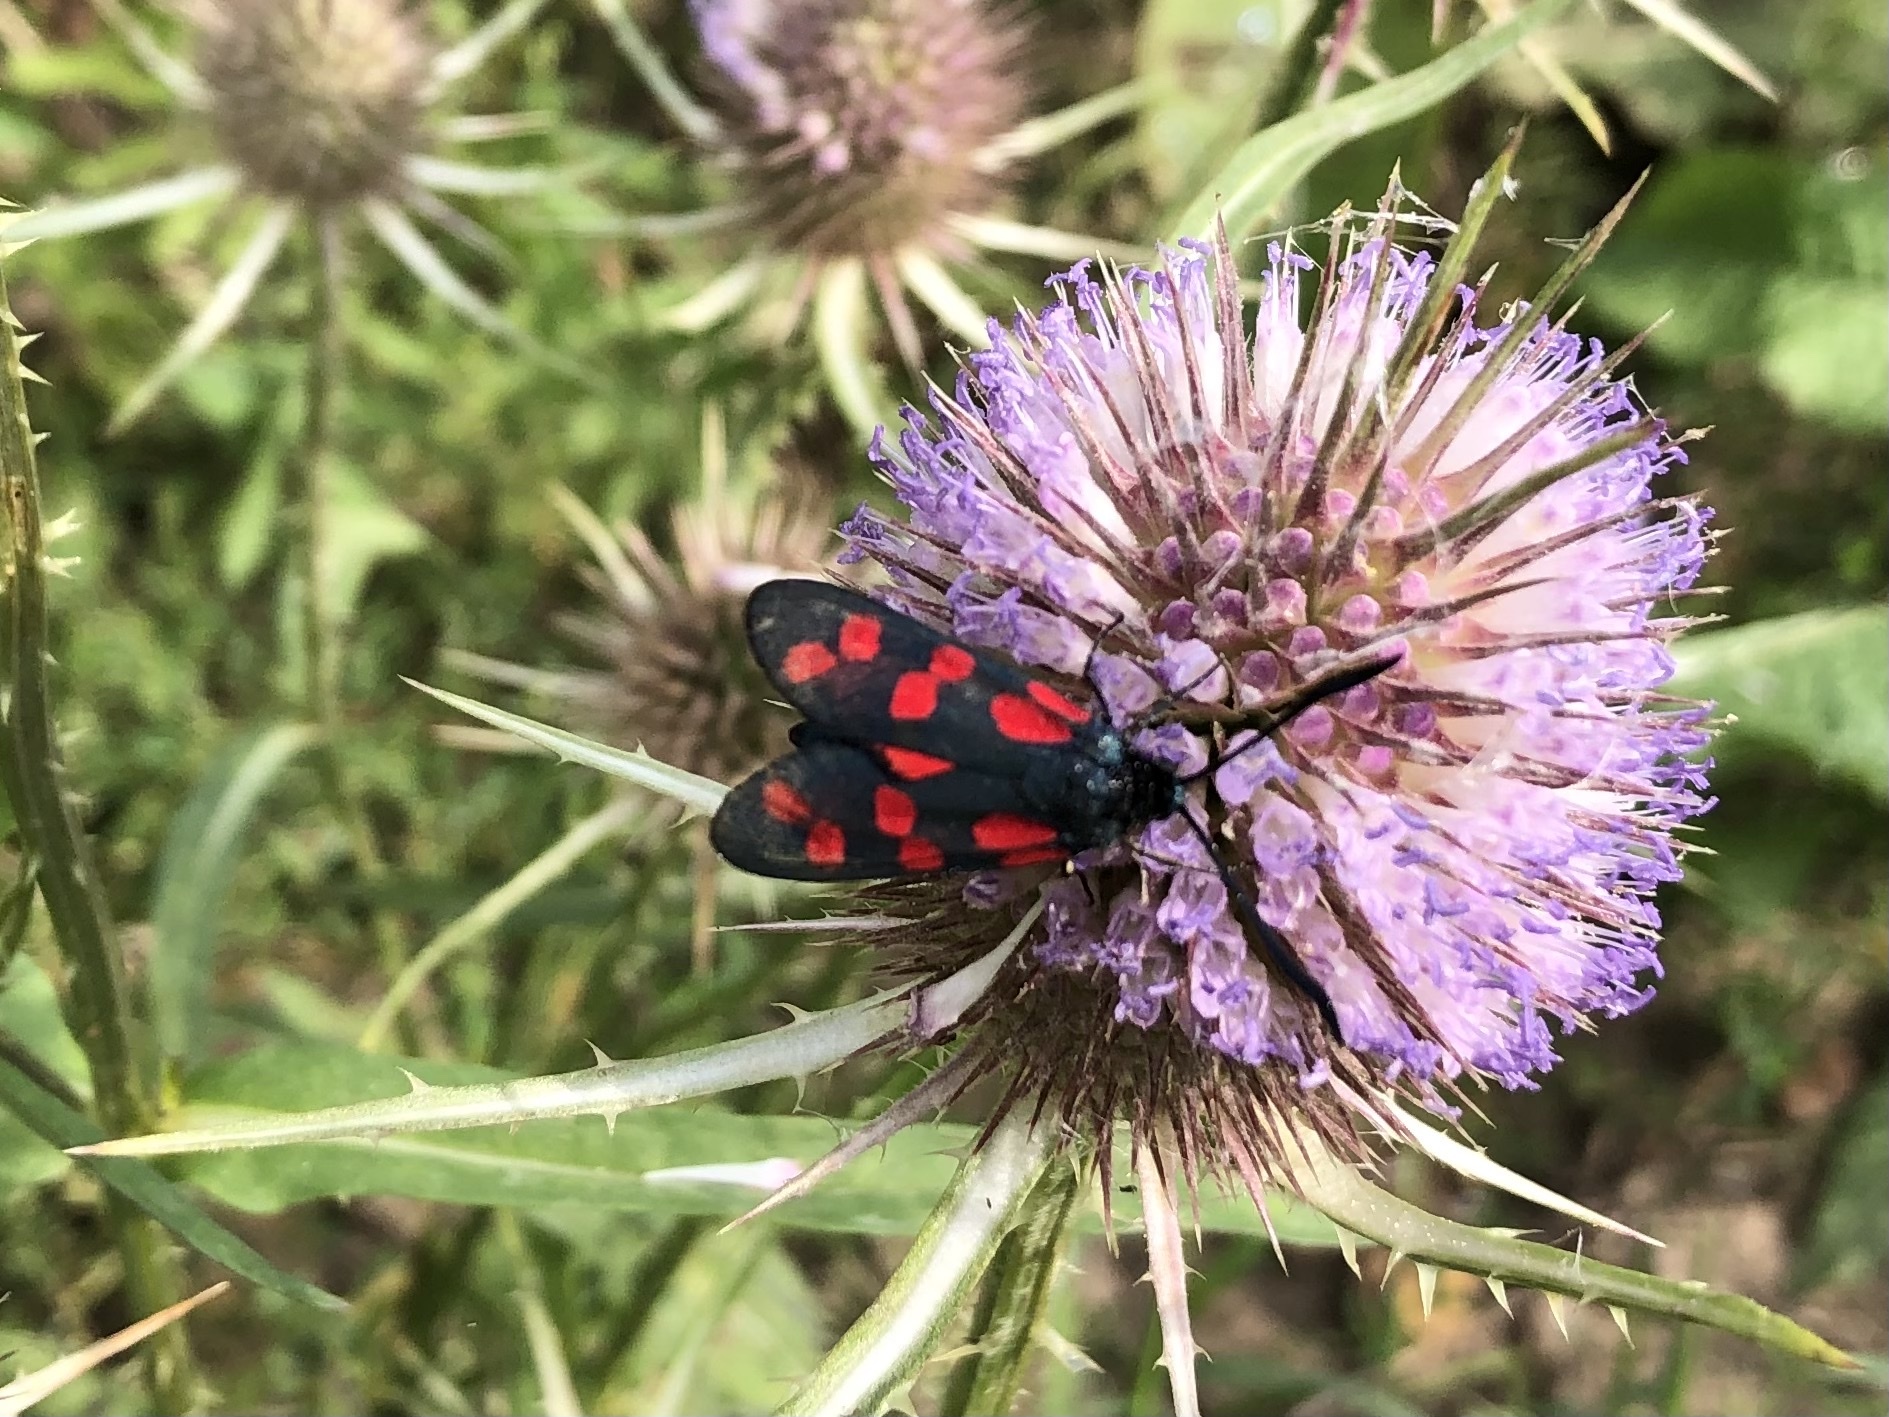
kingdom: Animalia
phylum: Arthropoda
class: Insecta
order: Lepidoptera
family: Zygaenidae
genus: Zygaena
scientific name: Zygaena filipendulae
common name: Six-spot burnet
